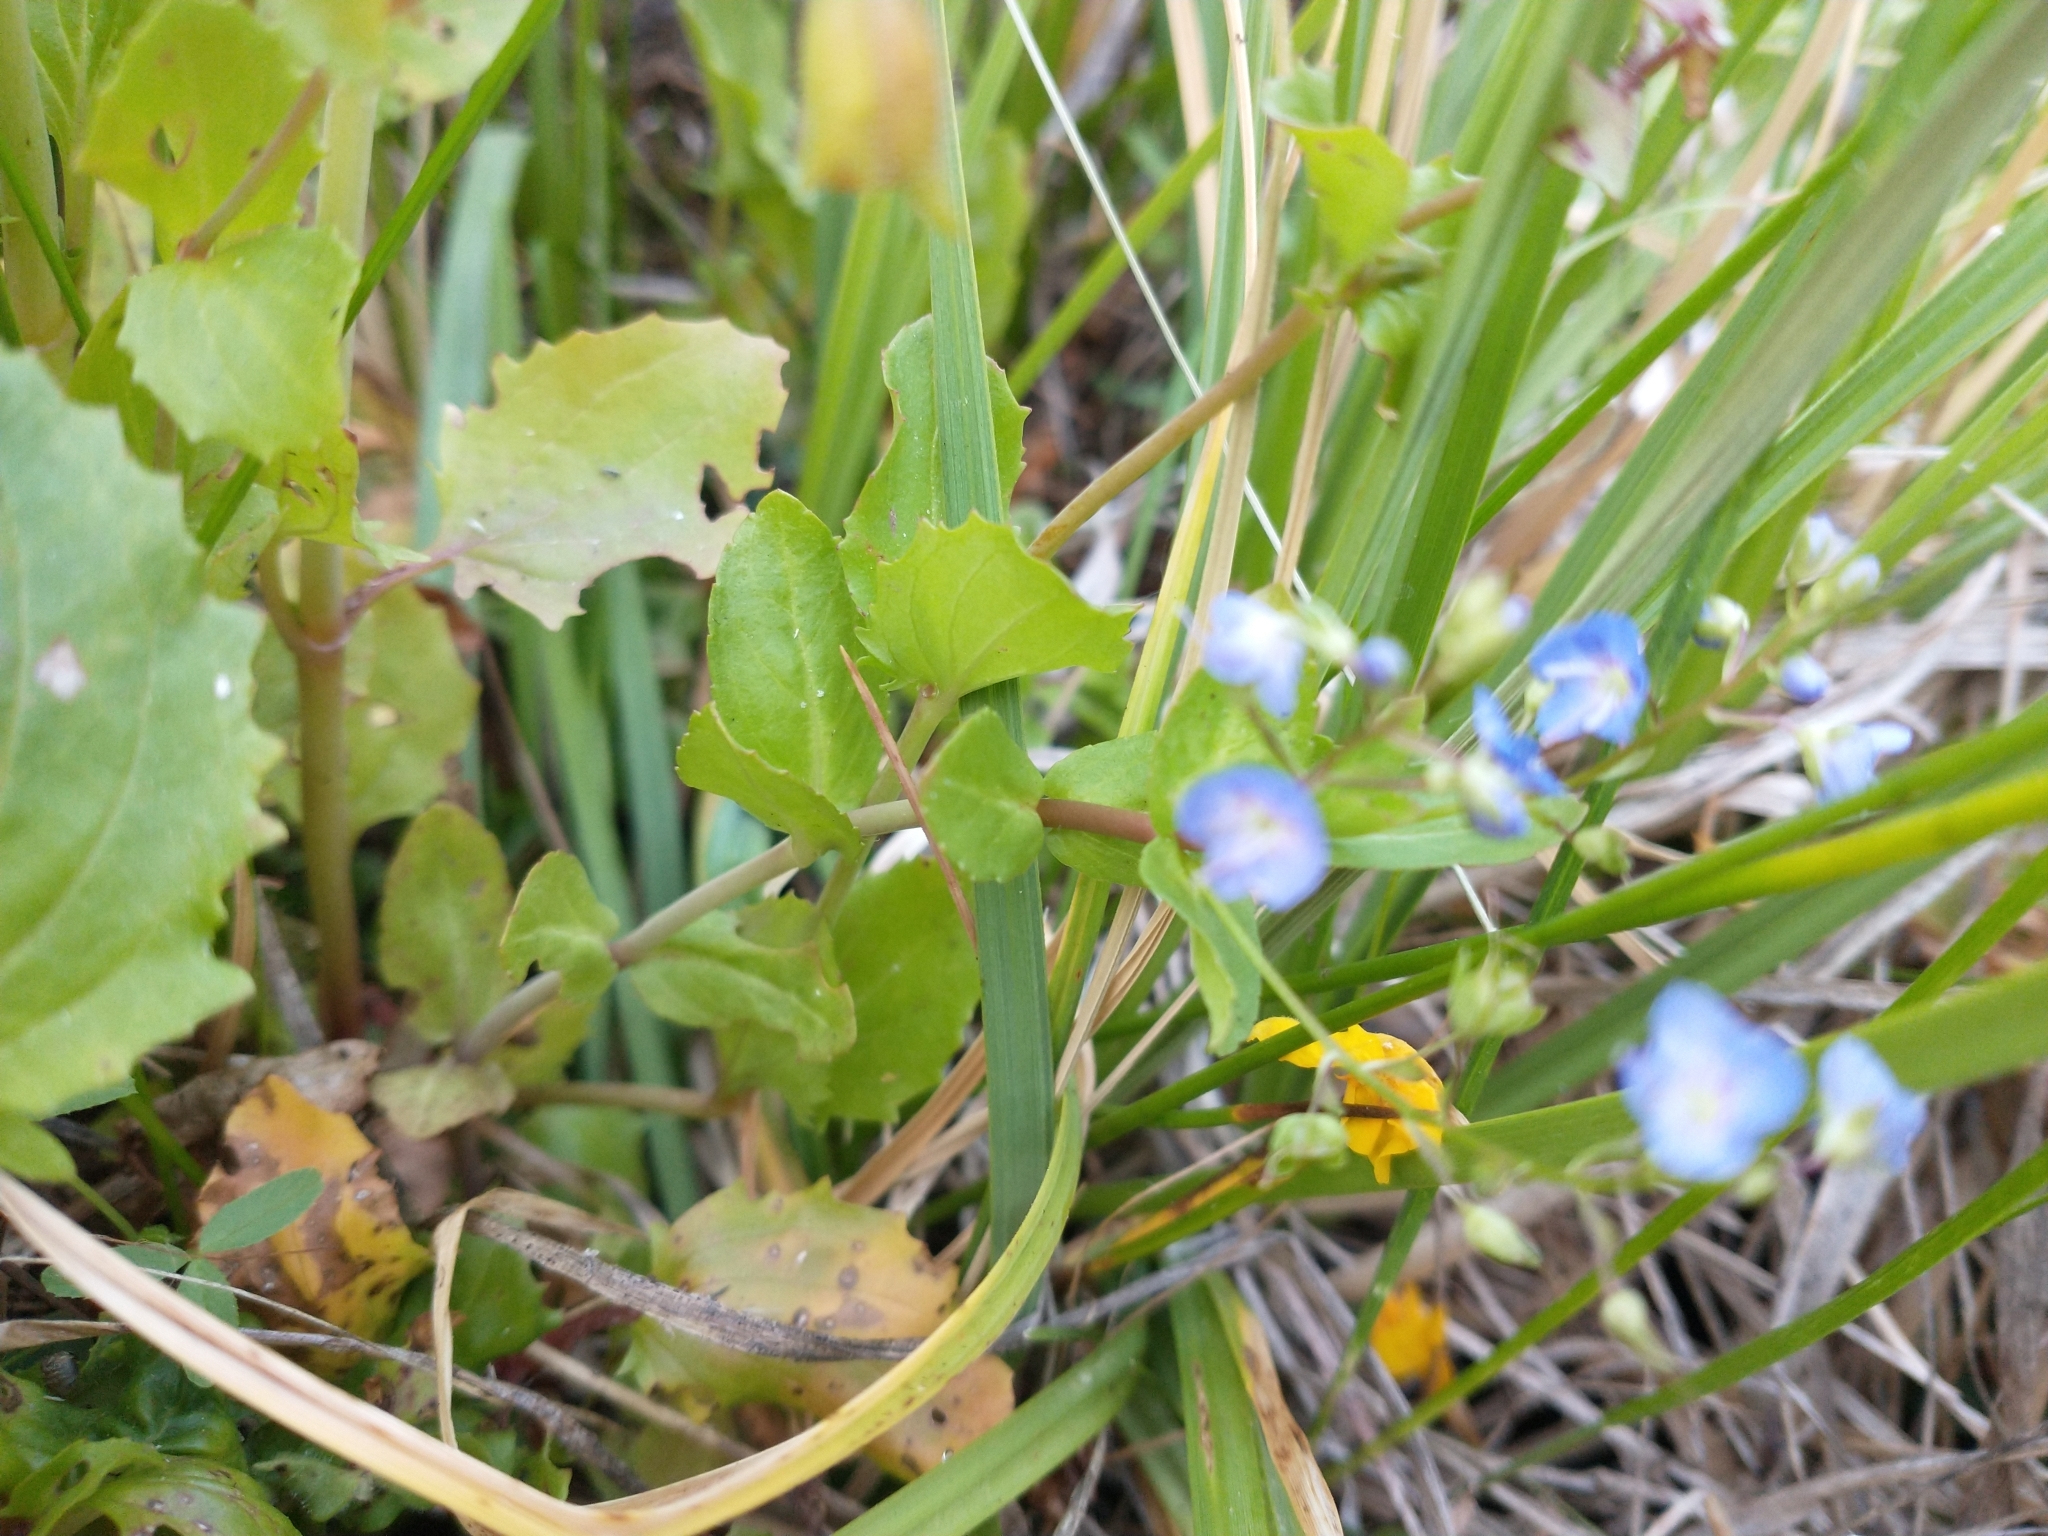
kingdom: Plantae
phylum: Tracheophyta
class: Magnoliopsida
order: Lamiales
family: Plantaginaceae
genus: Veronica
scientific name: Veronica americana
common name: American brooklime
